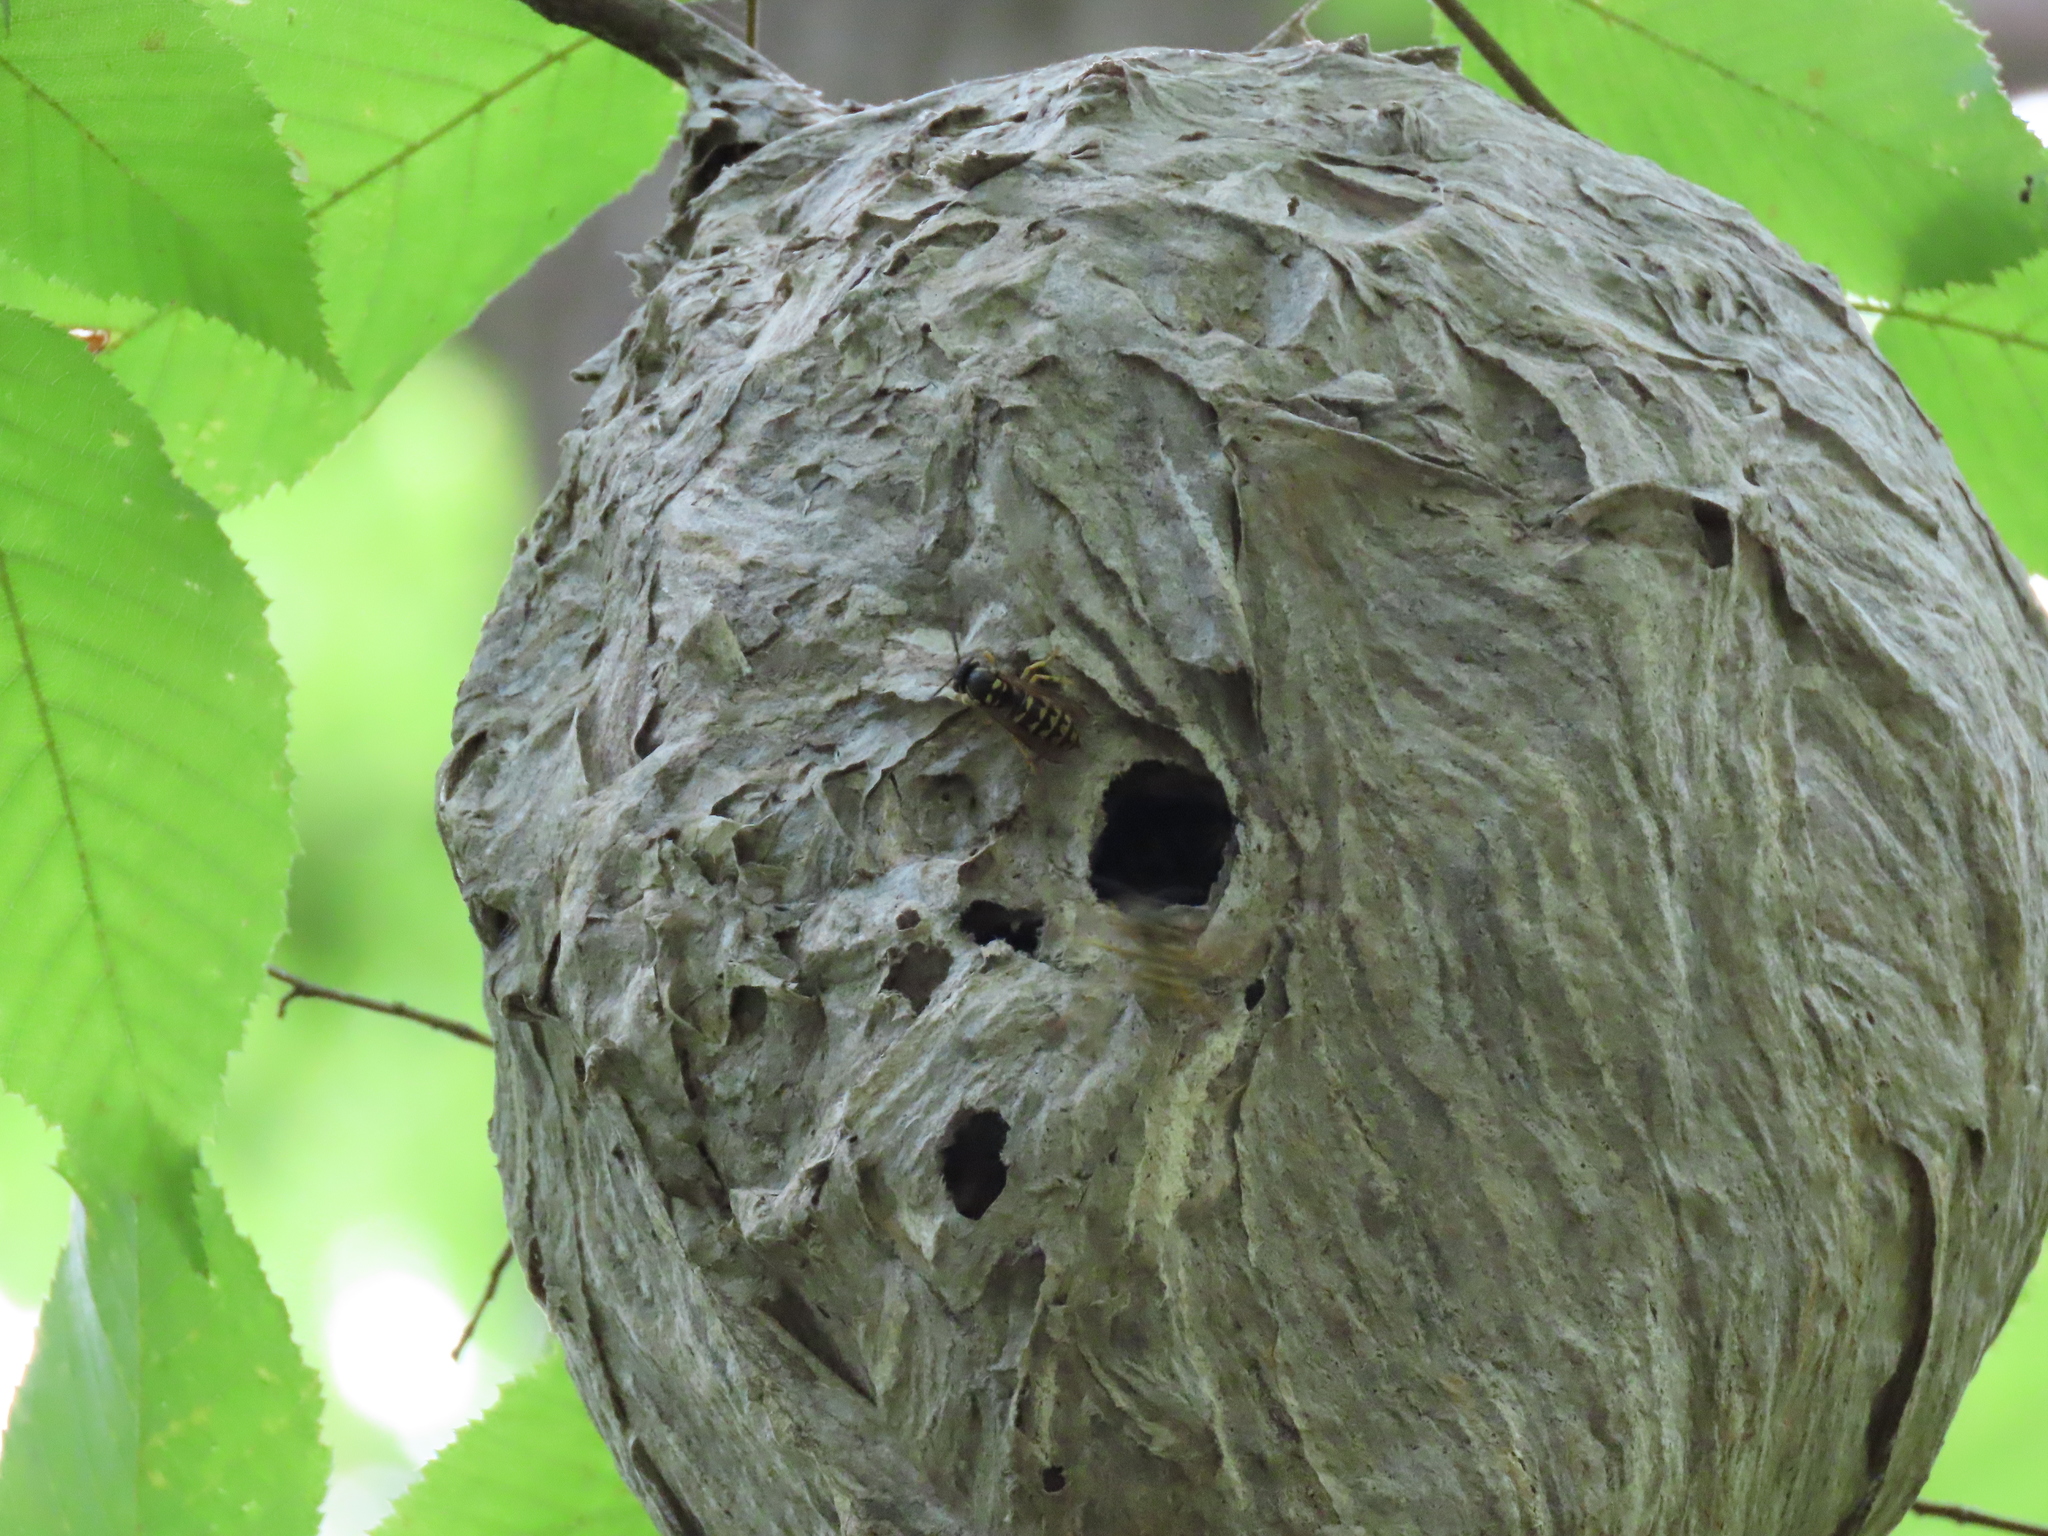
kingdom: Animalia
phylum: Arthropoda
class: Insecta
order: Hymenoptera
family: Vespidae
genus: Dolichovespula
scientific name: Dolichovespula arenaria
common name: Aerial yellowjacket
